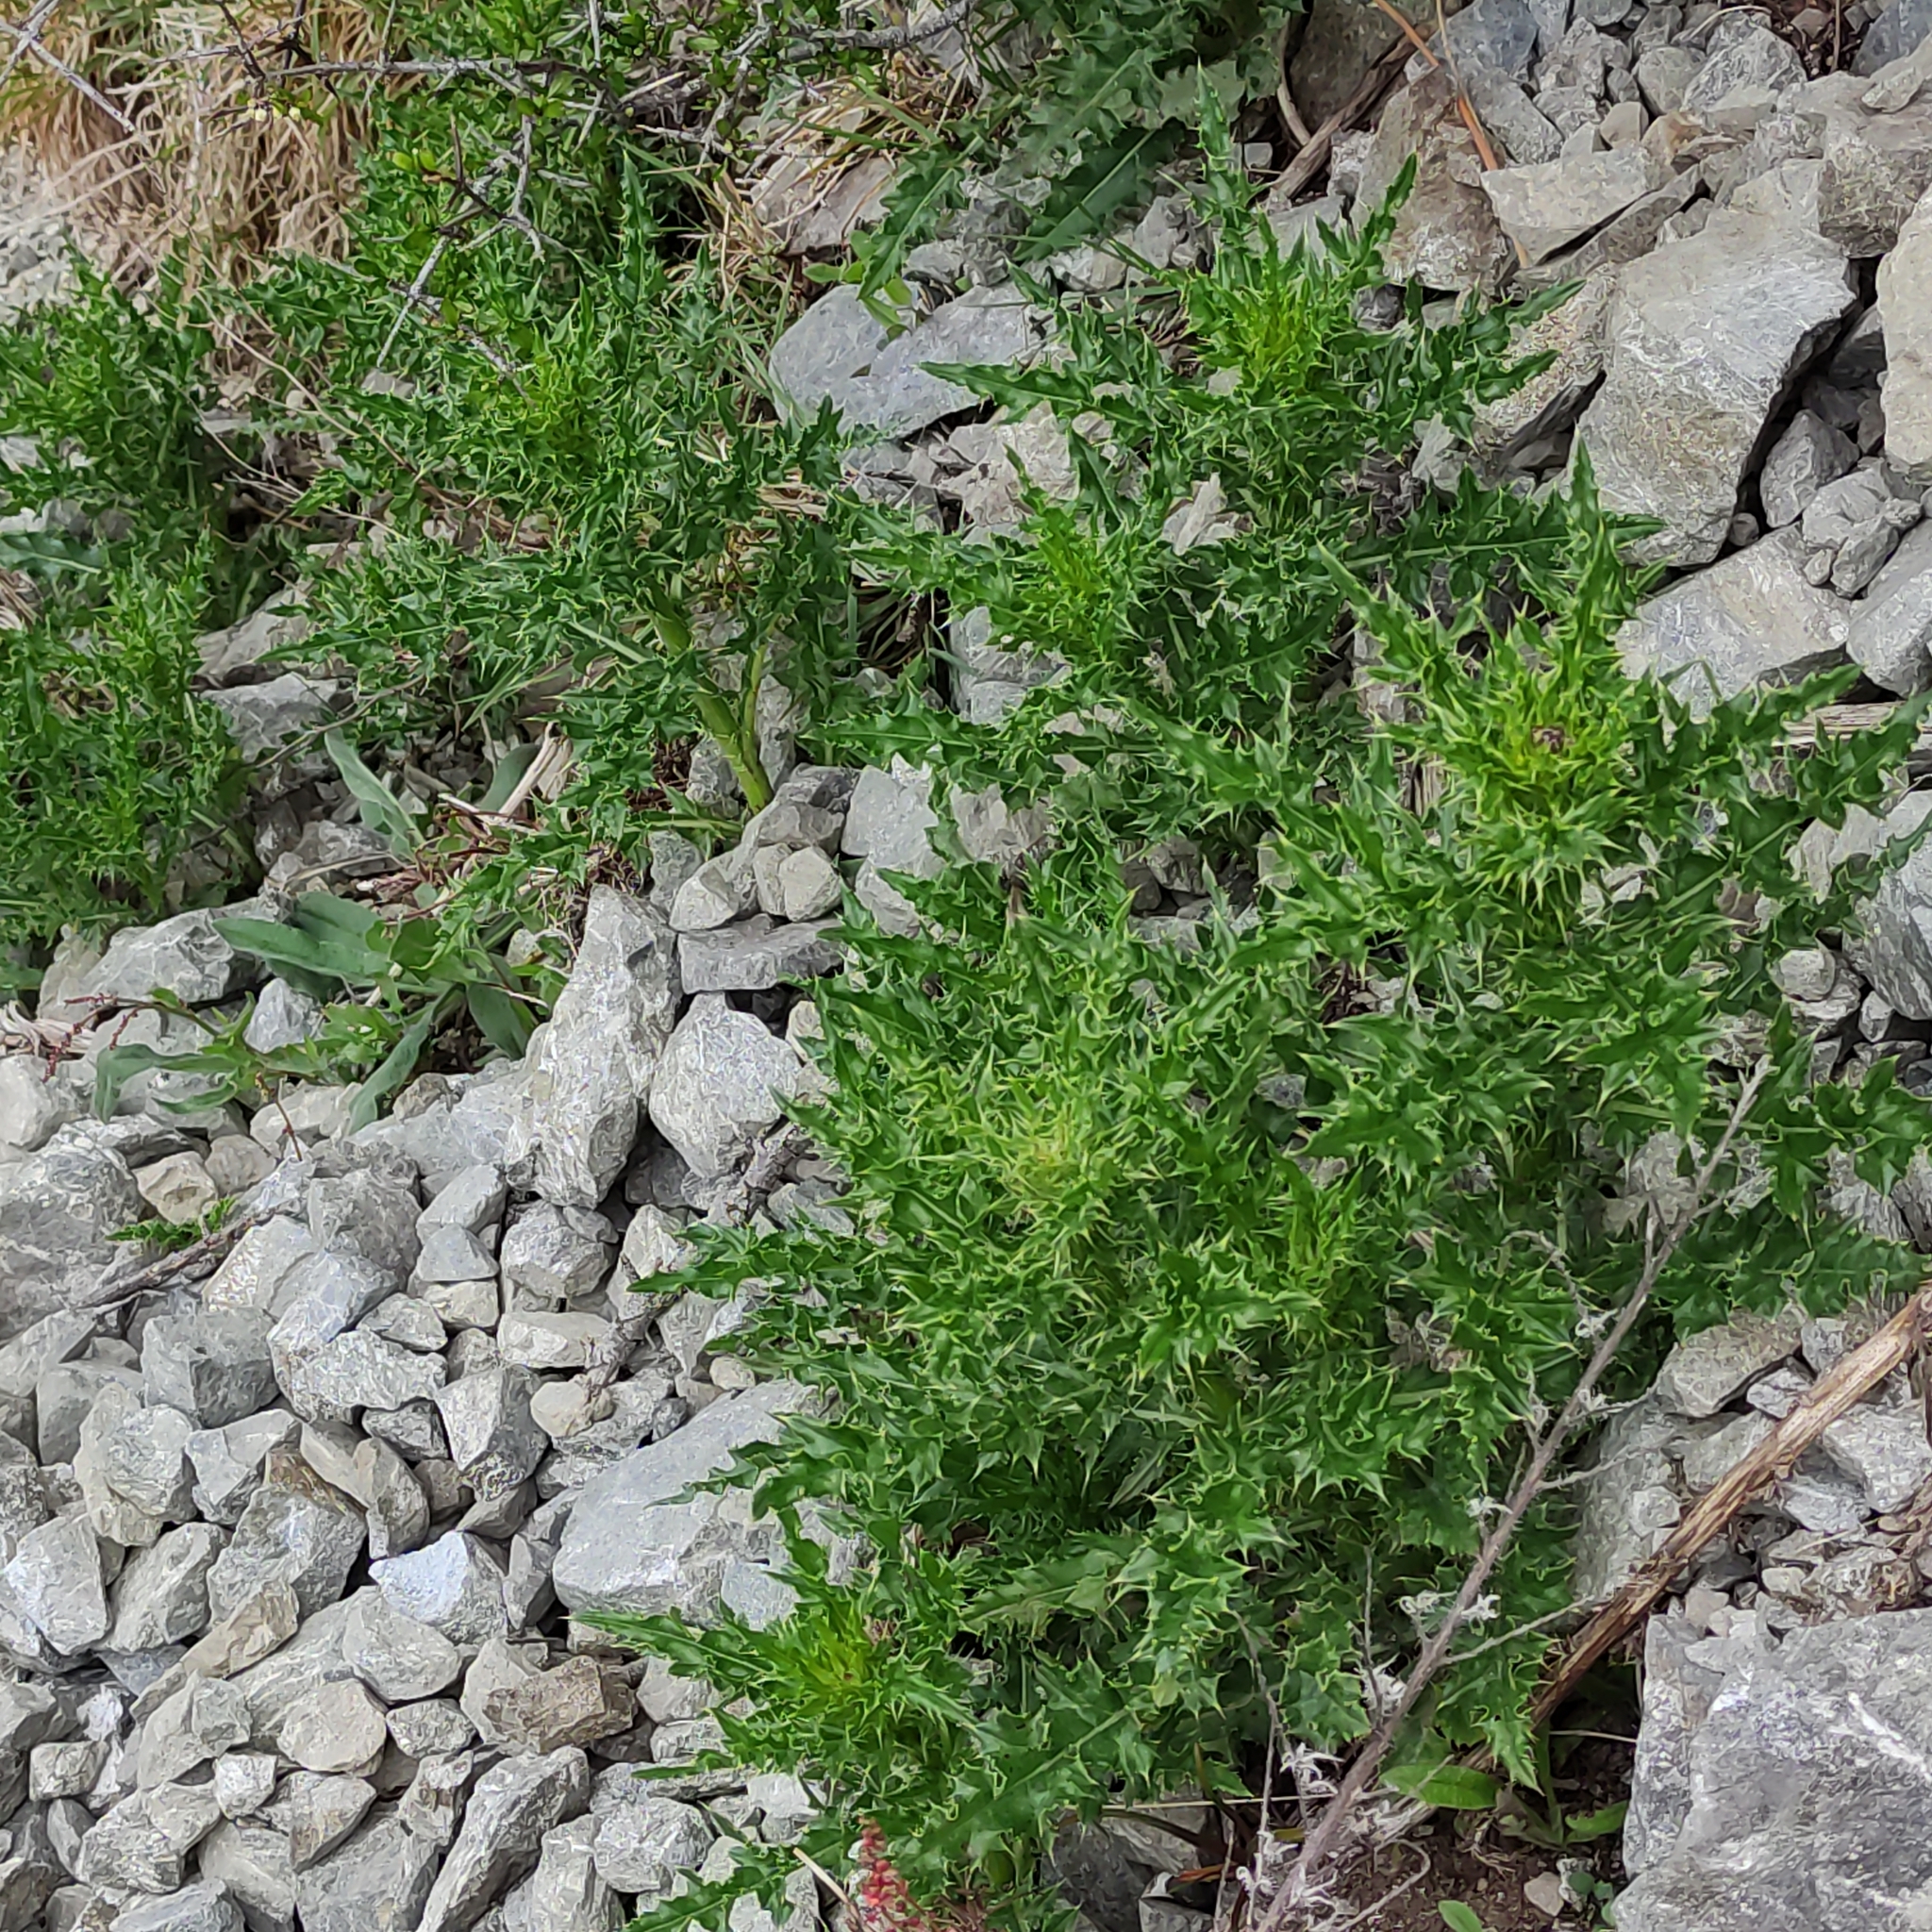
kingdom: Plantae
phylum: Tracheophyta
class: Magnoliopsida
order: Asterales
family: Asteraceae
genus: Cirsium
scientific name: Cirsium arvense
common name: Creeping thistle
